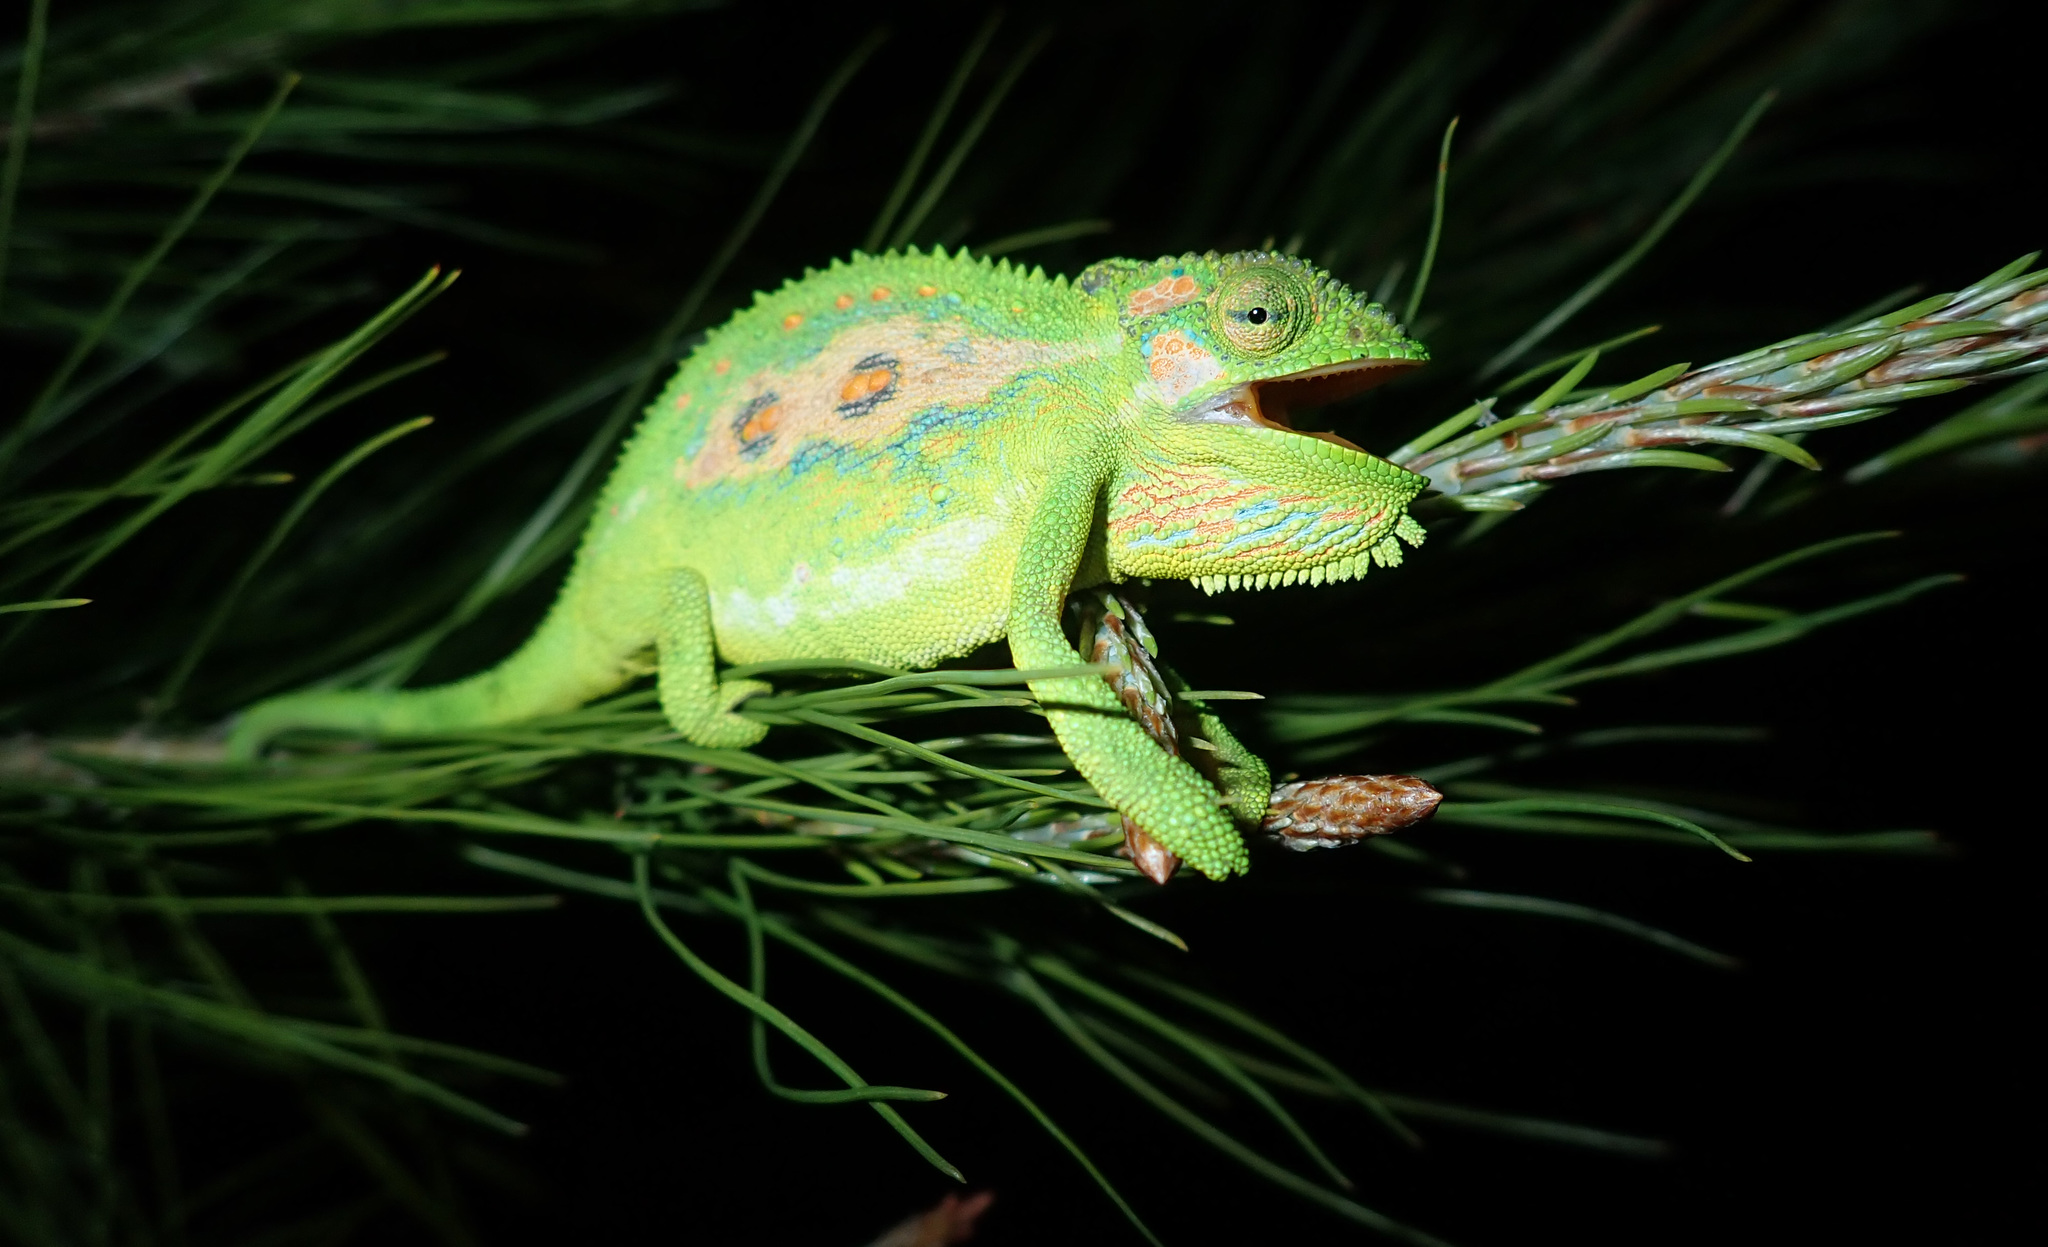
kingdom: Animalia
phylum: Chordata
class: Squamata
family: Chamaeleonidae
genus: Bradypodion
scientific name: Bradypodion pumilum
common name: Cape dwarf chameleon
